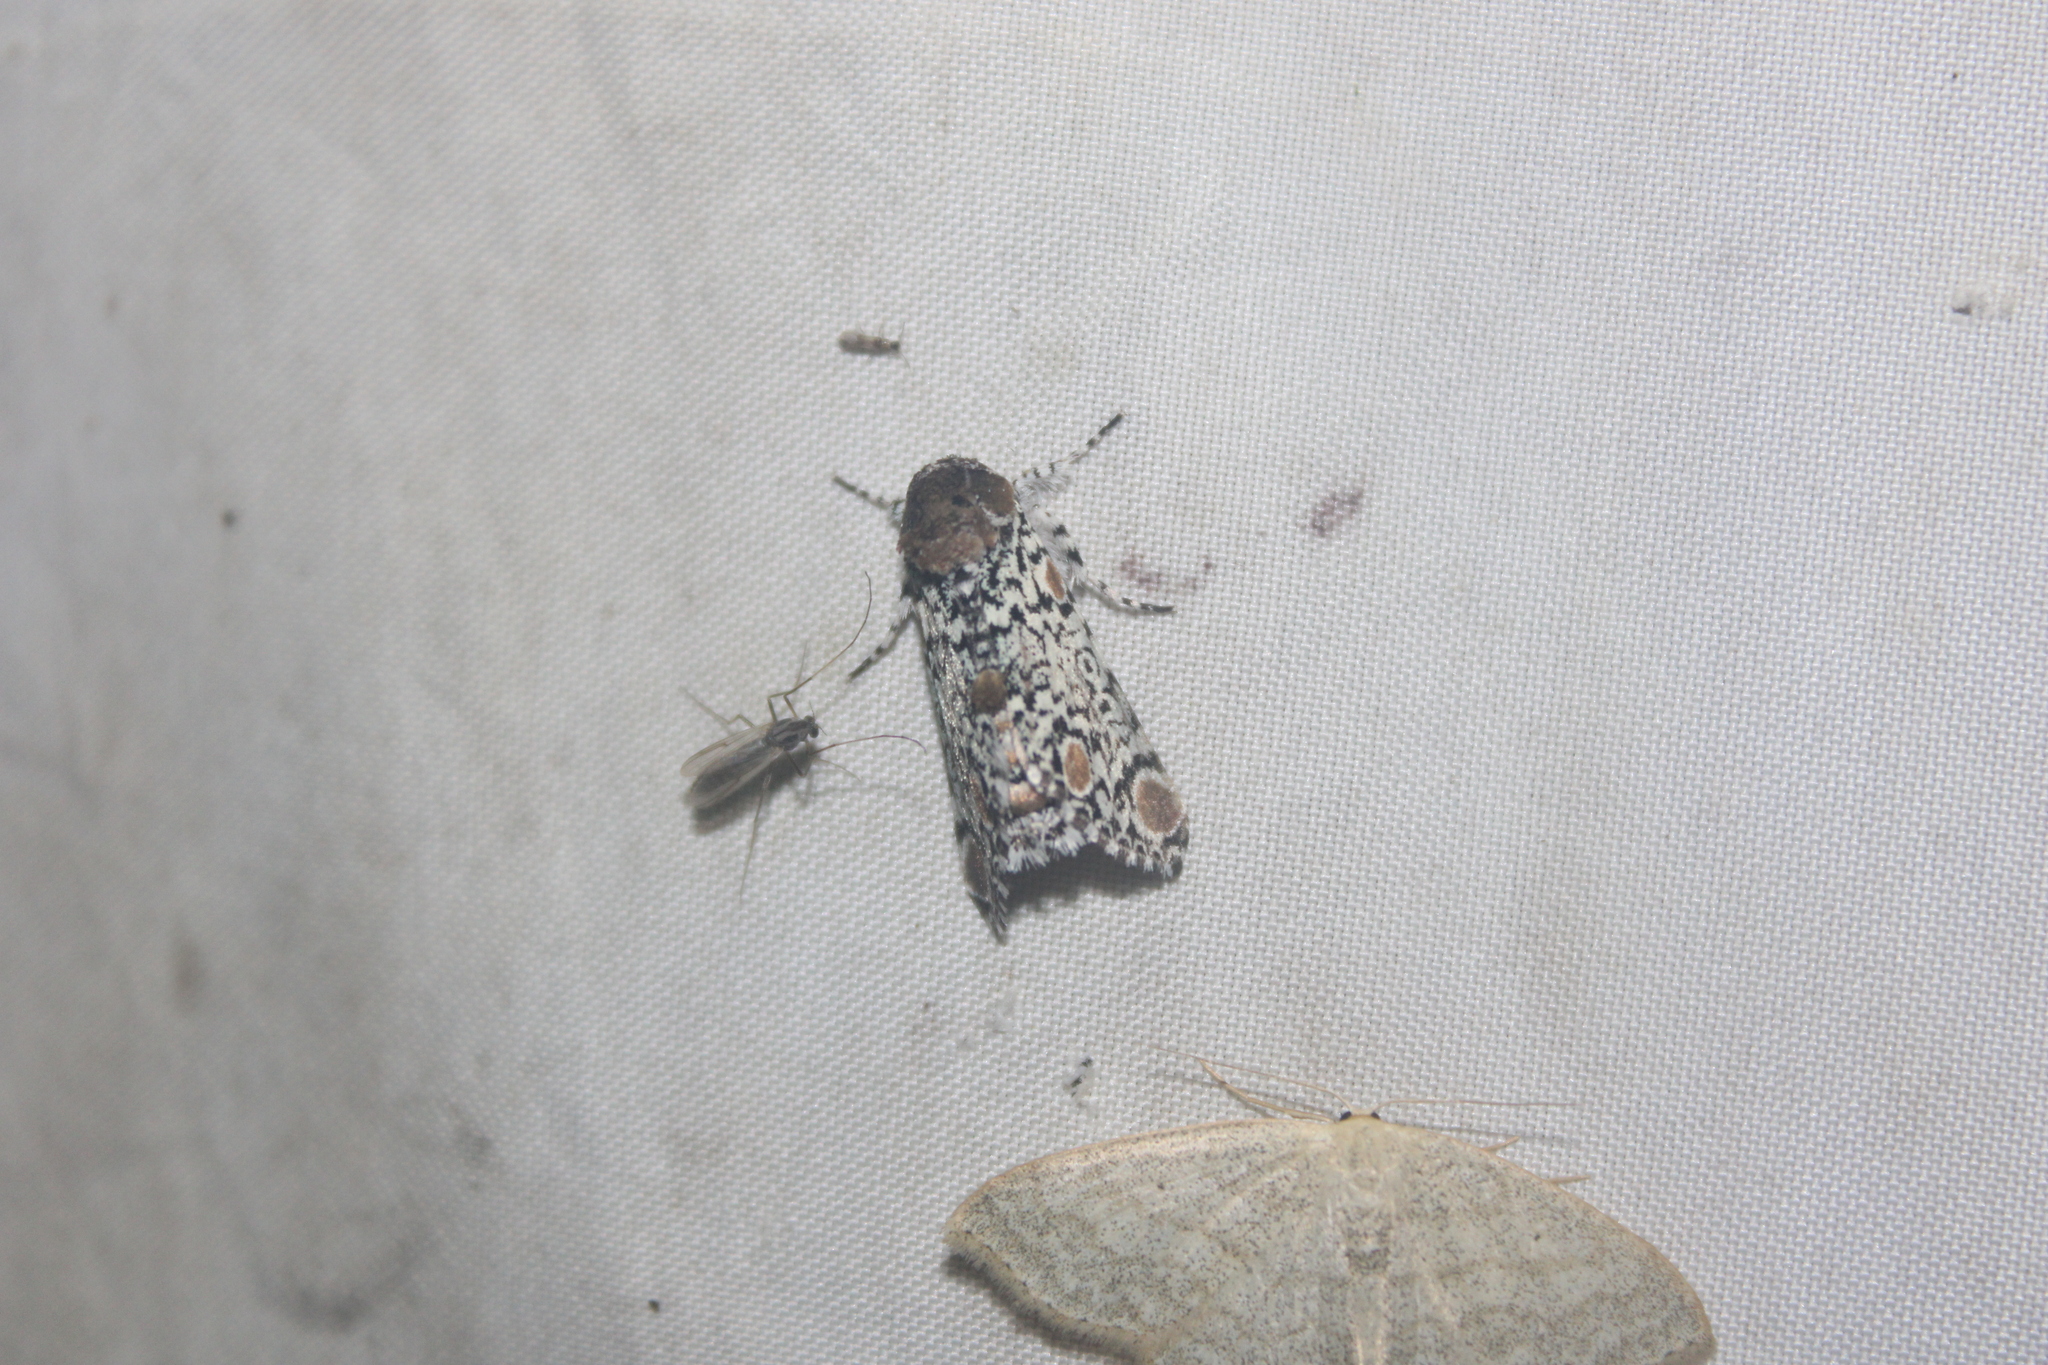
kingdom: Animalia
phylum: Arthropoda
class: Insecta
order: Lepidoptera
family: Noctuidae
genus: Harrisimemna
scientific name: Harrisimemna trisignata
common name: Harris threespot
